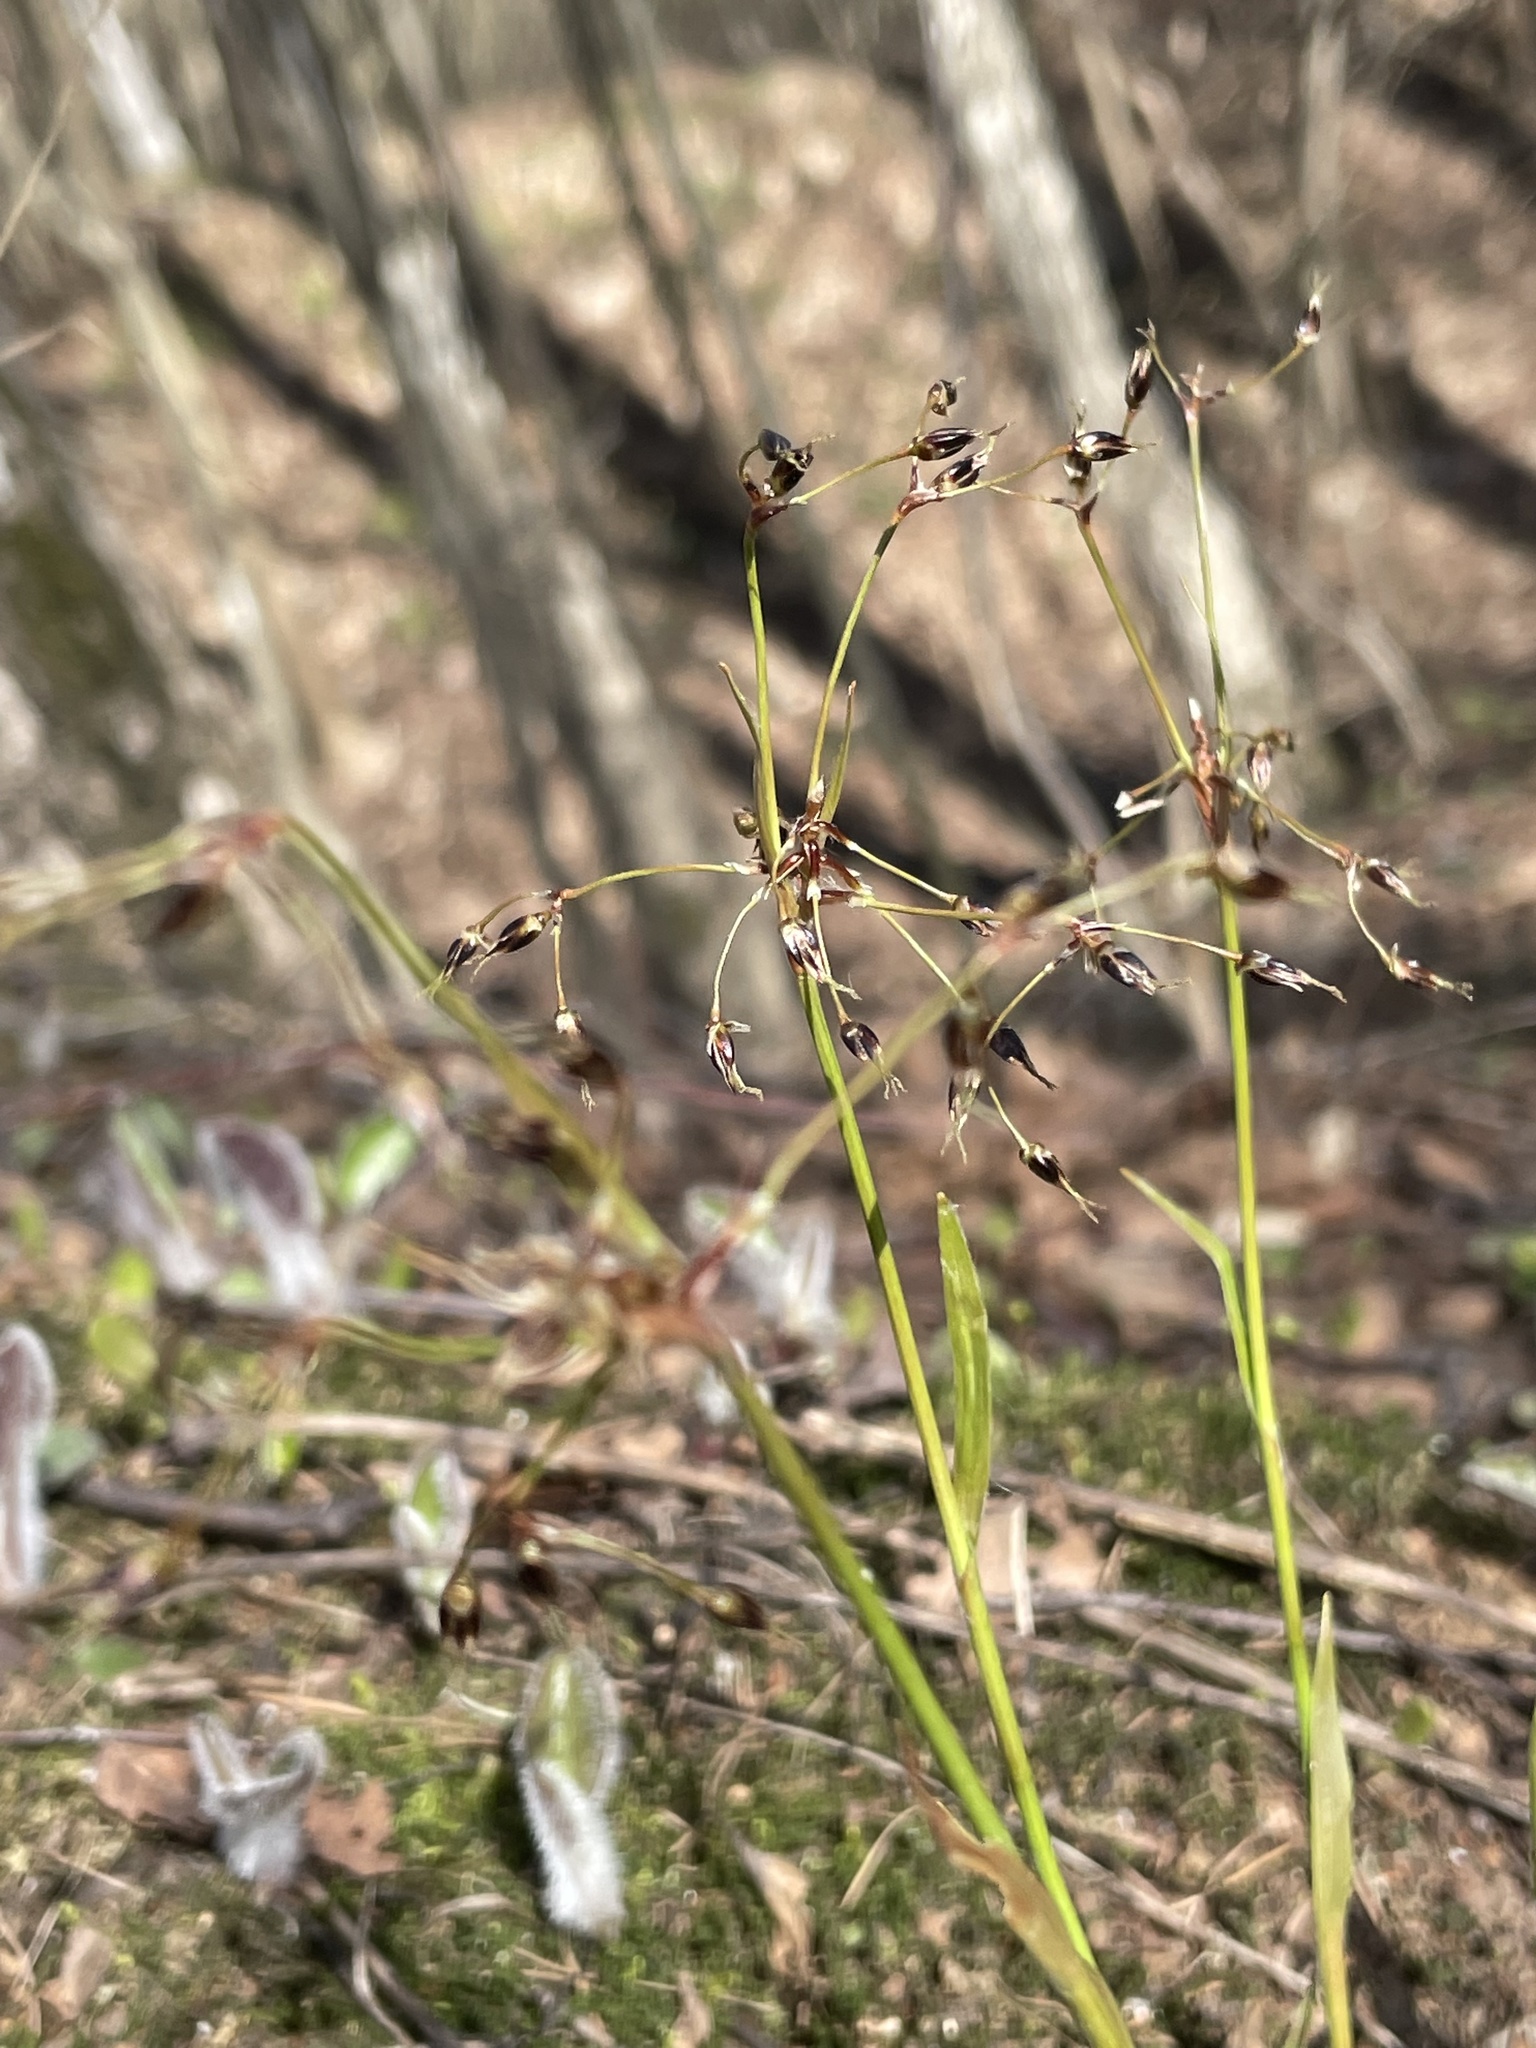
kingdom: Plantae
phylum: Tracheophyta
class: Liliopsida
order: Poales
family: Juncaceae
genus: Luzula
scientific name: Luzula pilosa
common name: Hairy wood-rush
